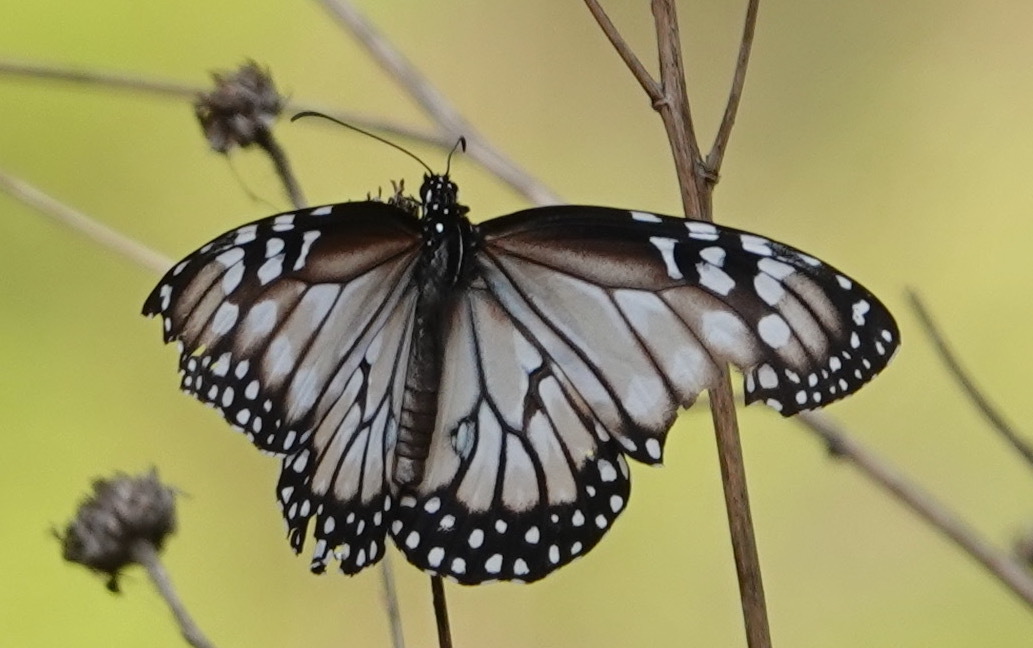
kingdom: Animalia
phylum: Arthropoda
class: Insecta
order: Lepidoptera
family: Nymphalidae
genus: Danaus
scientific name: Danaus gilippus
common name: Queen
